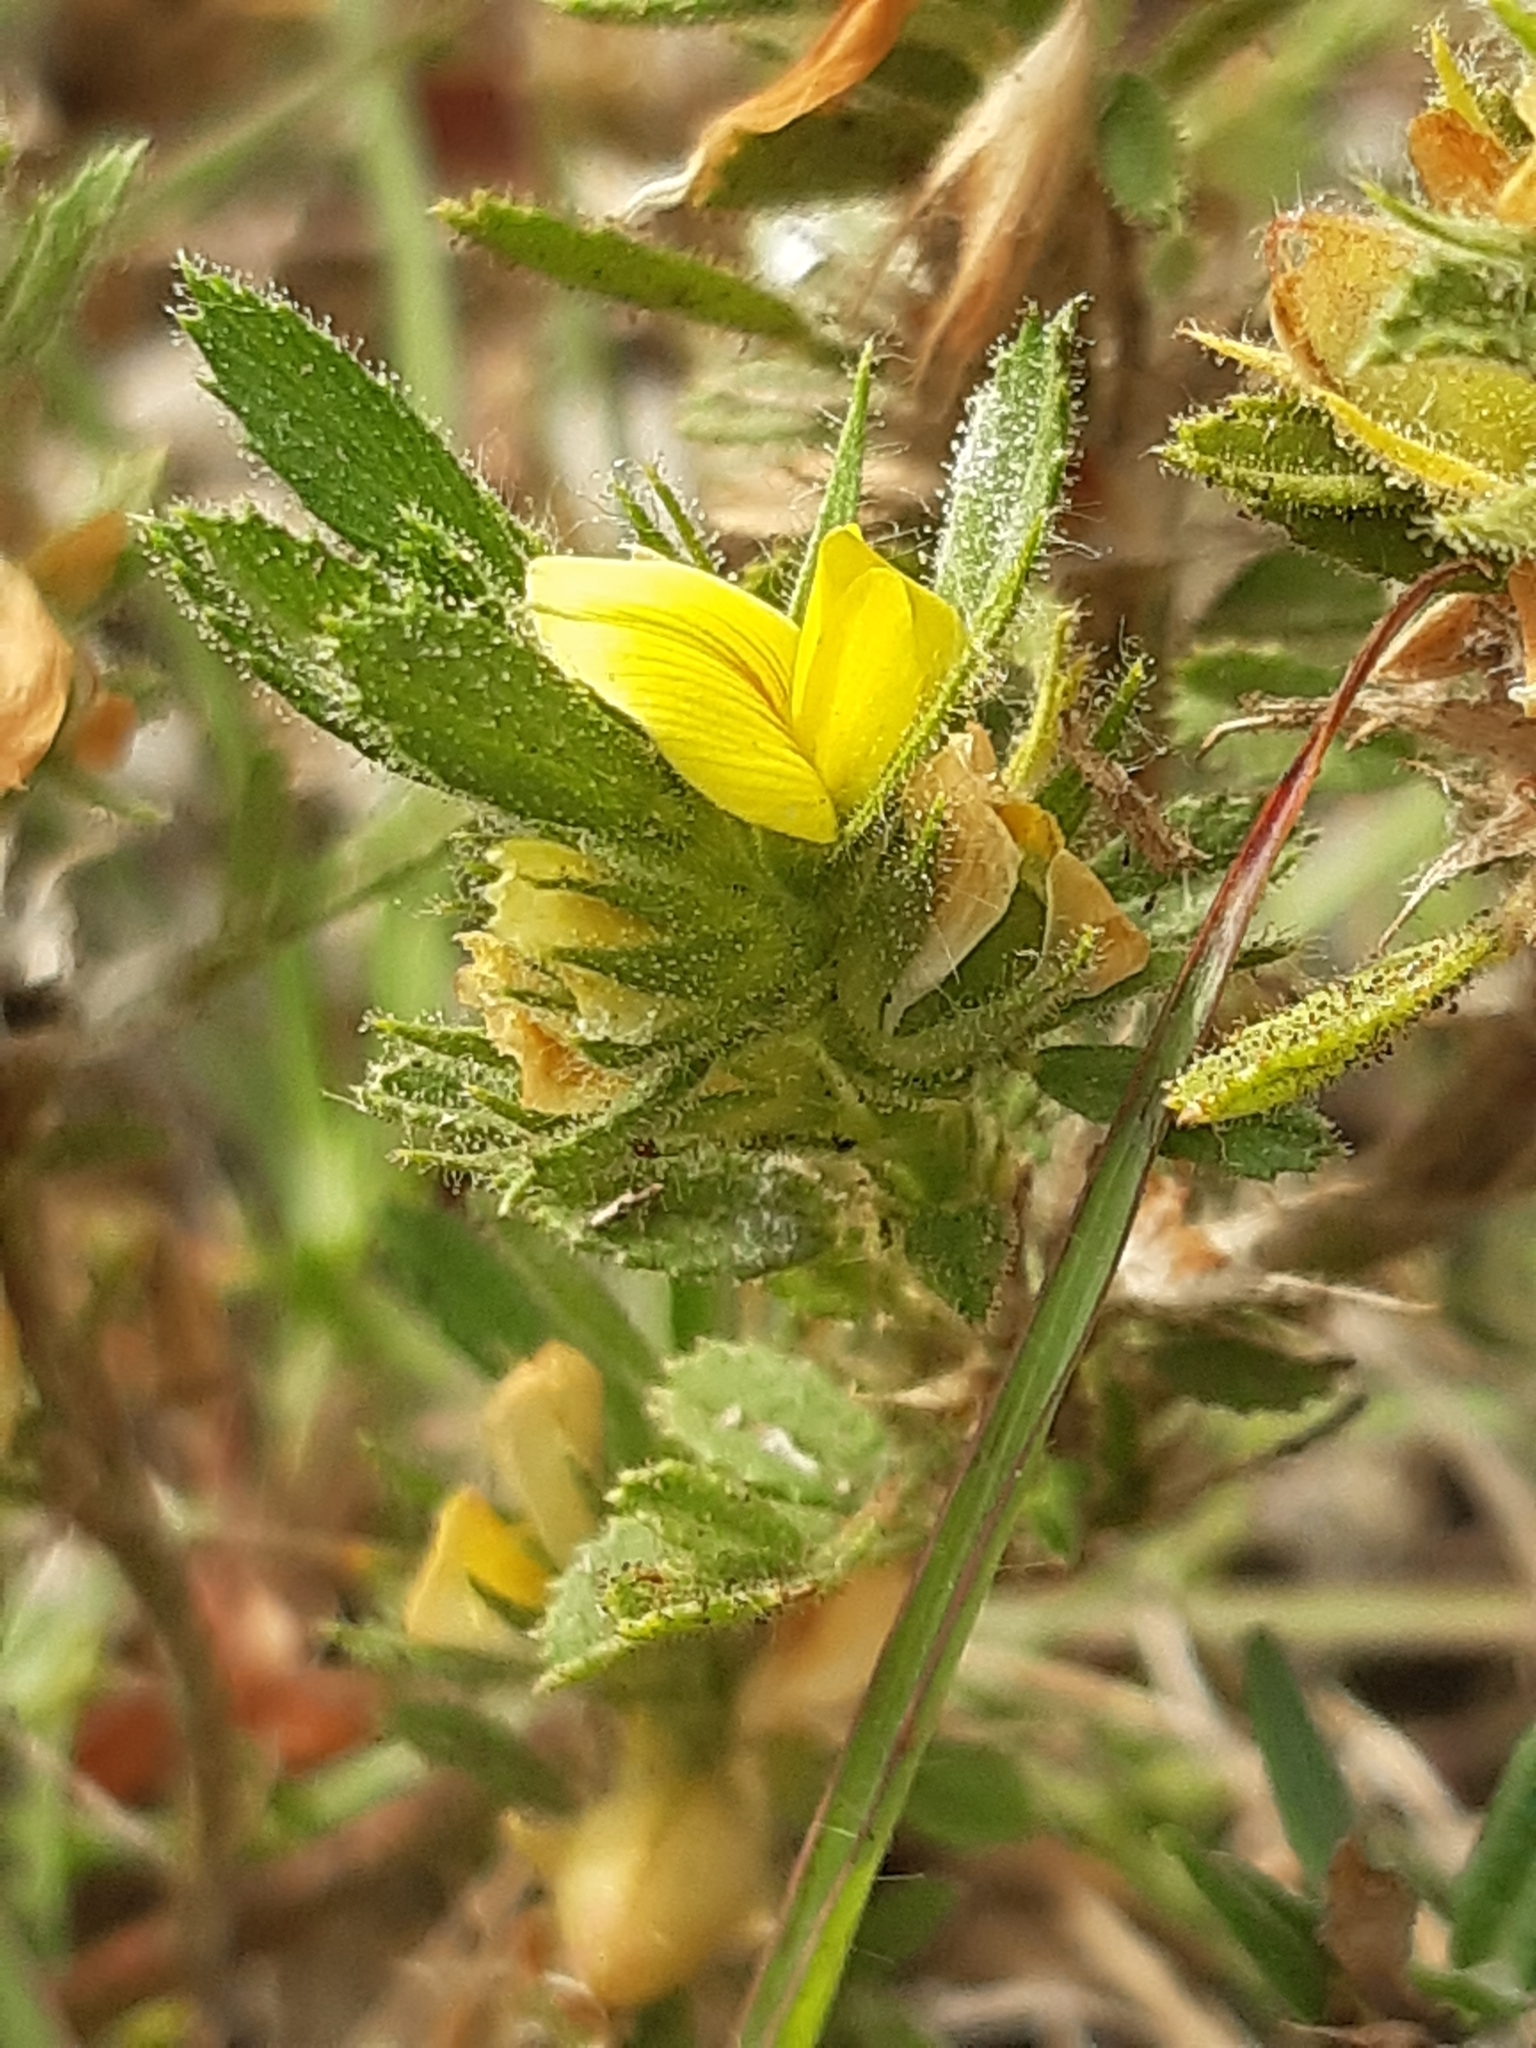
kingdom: Plantae
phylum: Tracheophyta
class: Magnoliopsida
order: Fabales
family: Fabaceae
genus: Ononis
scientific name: Ononis pusilla
